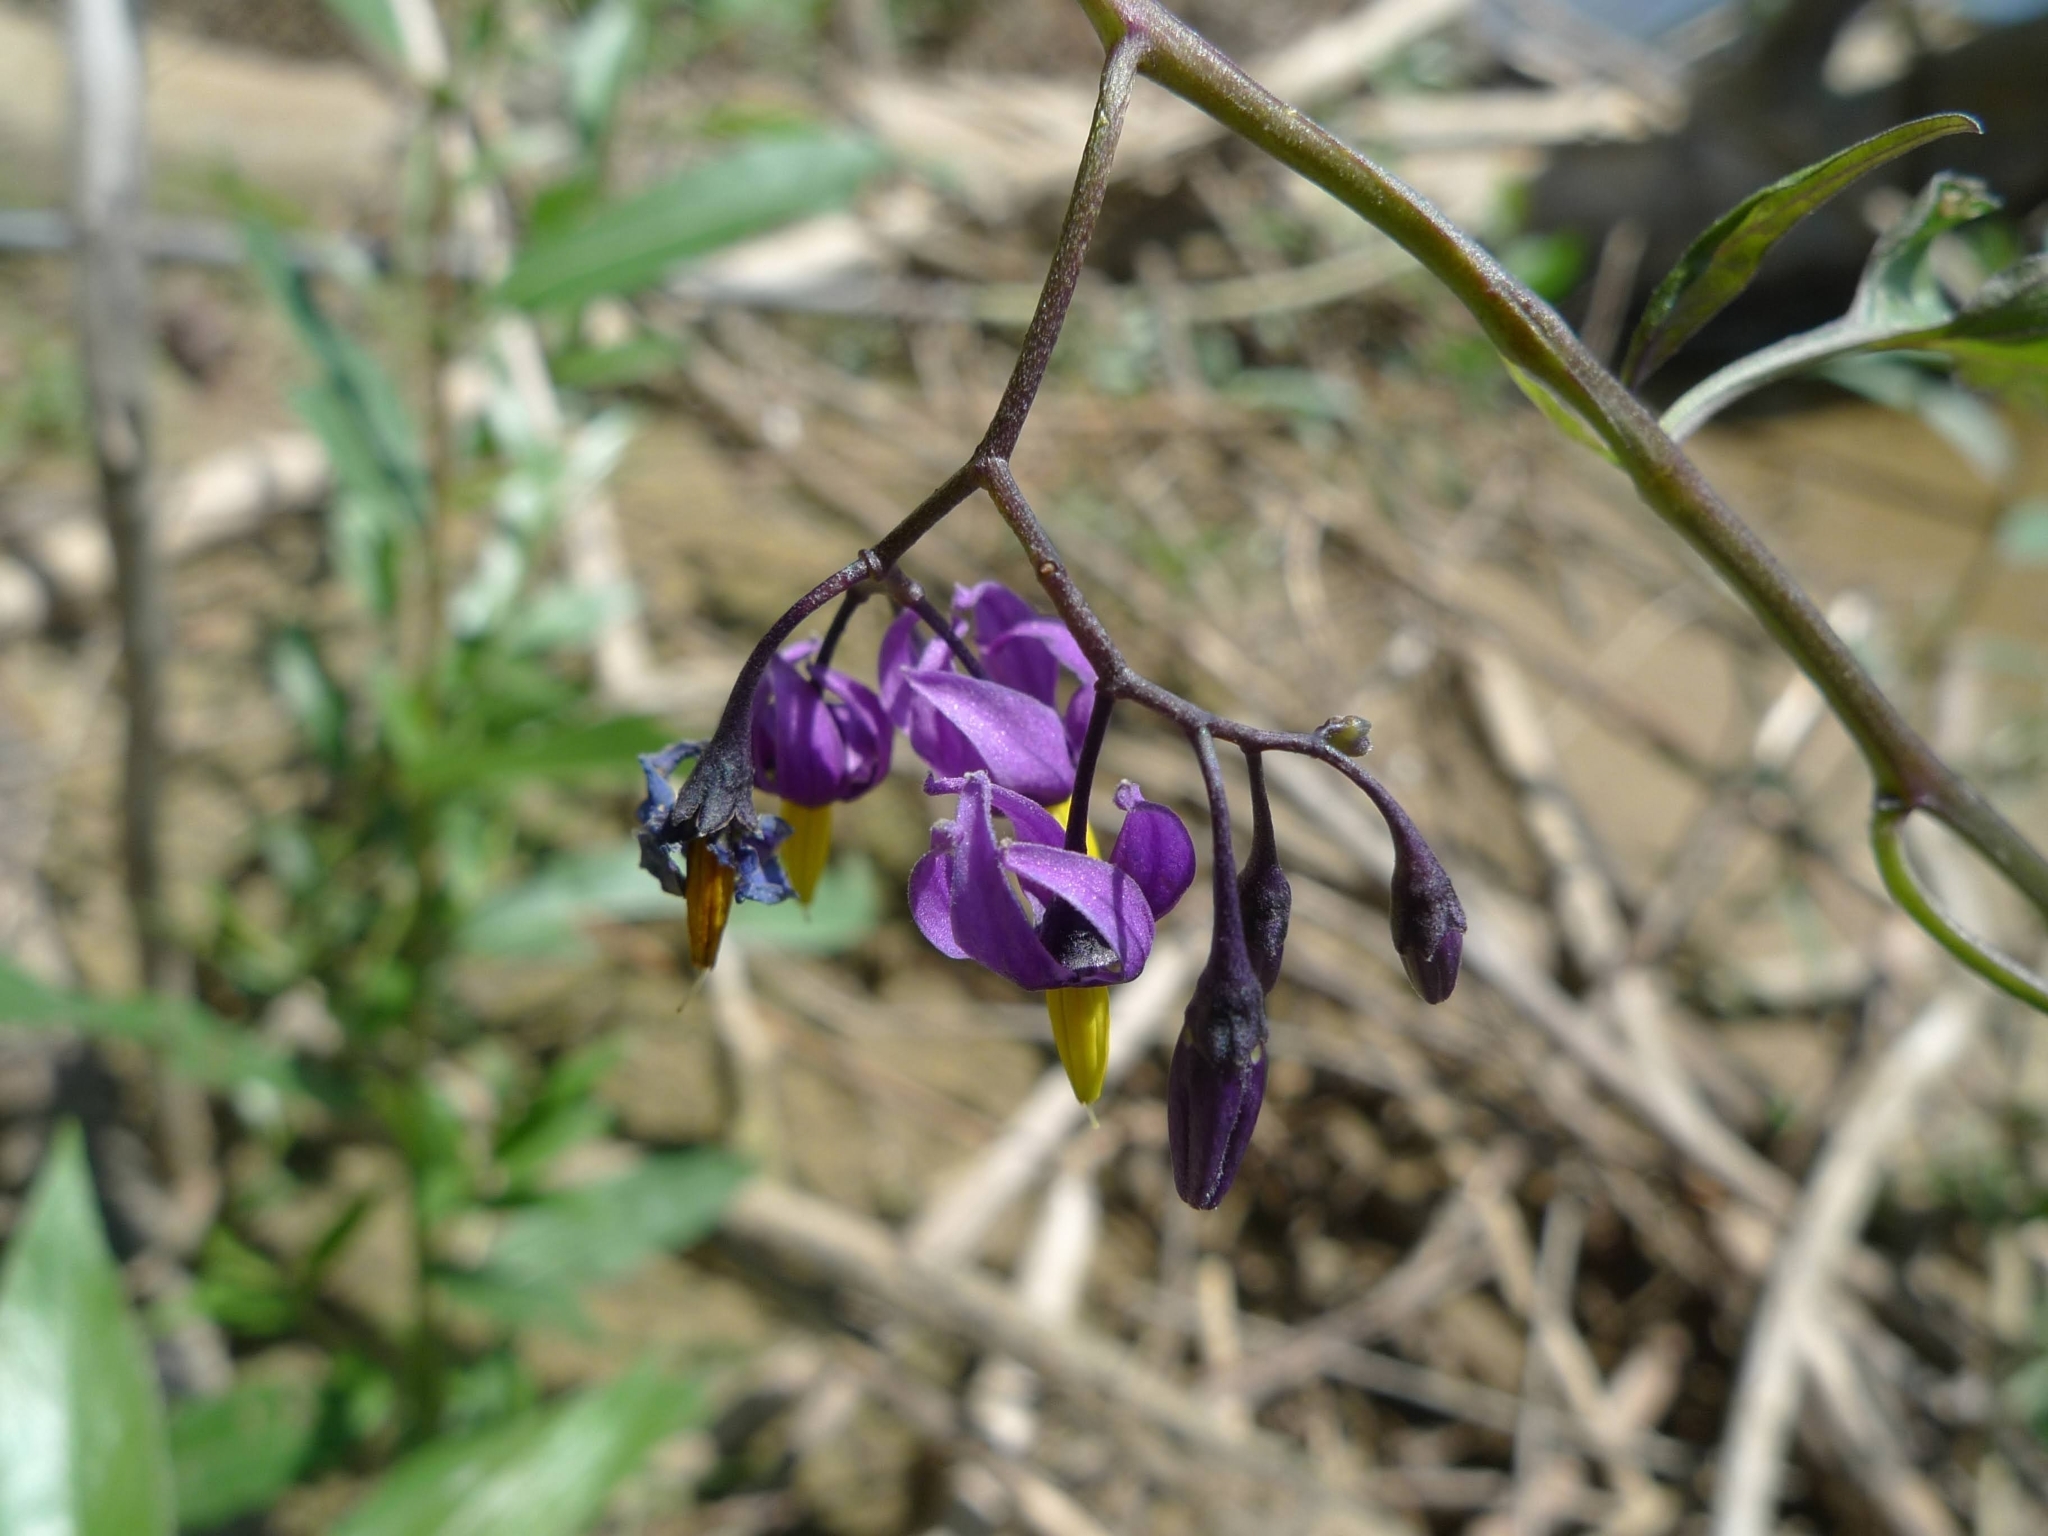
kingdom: Plantae
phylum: Tracheophyta
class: Magnoliopsida
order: Solanales
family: Solanaceae
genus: Solanum
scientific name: Solanum dulcamara
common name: Climbing nightshade
